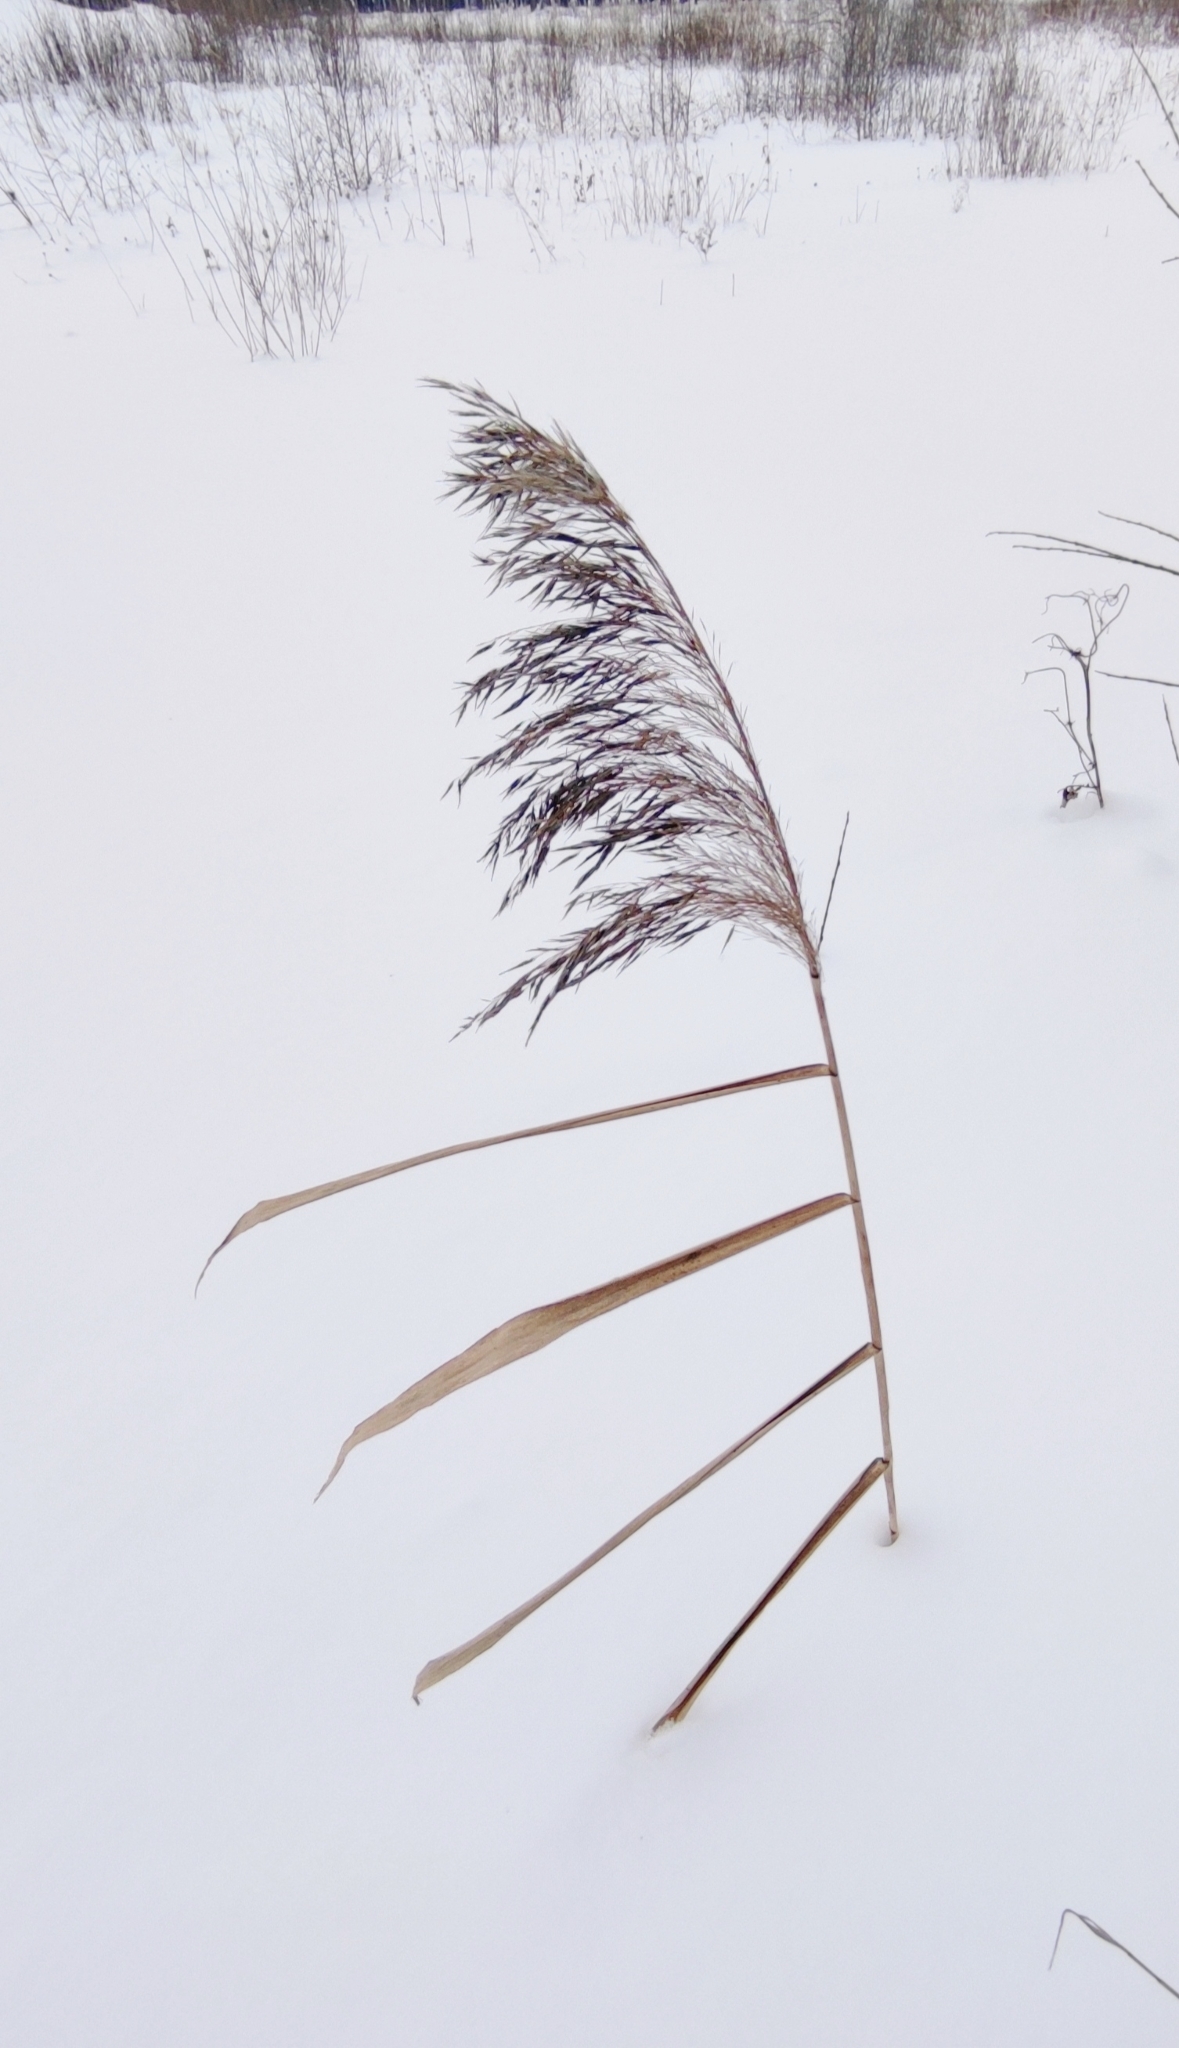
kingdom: Plantae
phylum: Tracheophyta
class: Liliopsida
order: Poales
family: Poaceae
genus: Phragmites
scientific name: Phragmites australis
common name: Common reed
